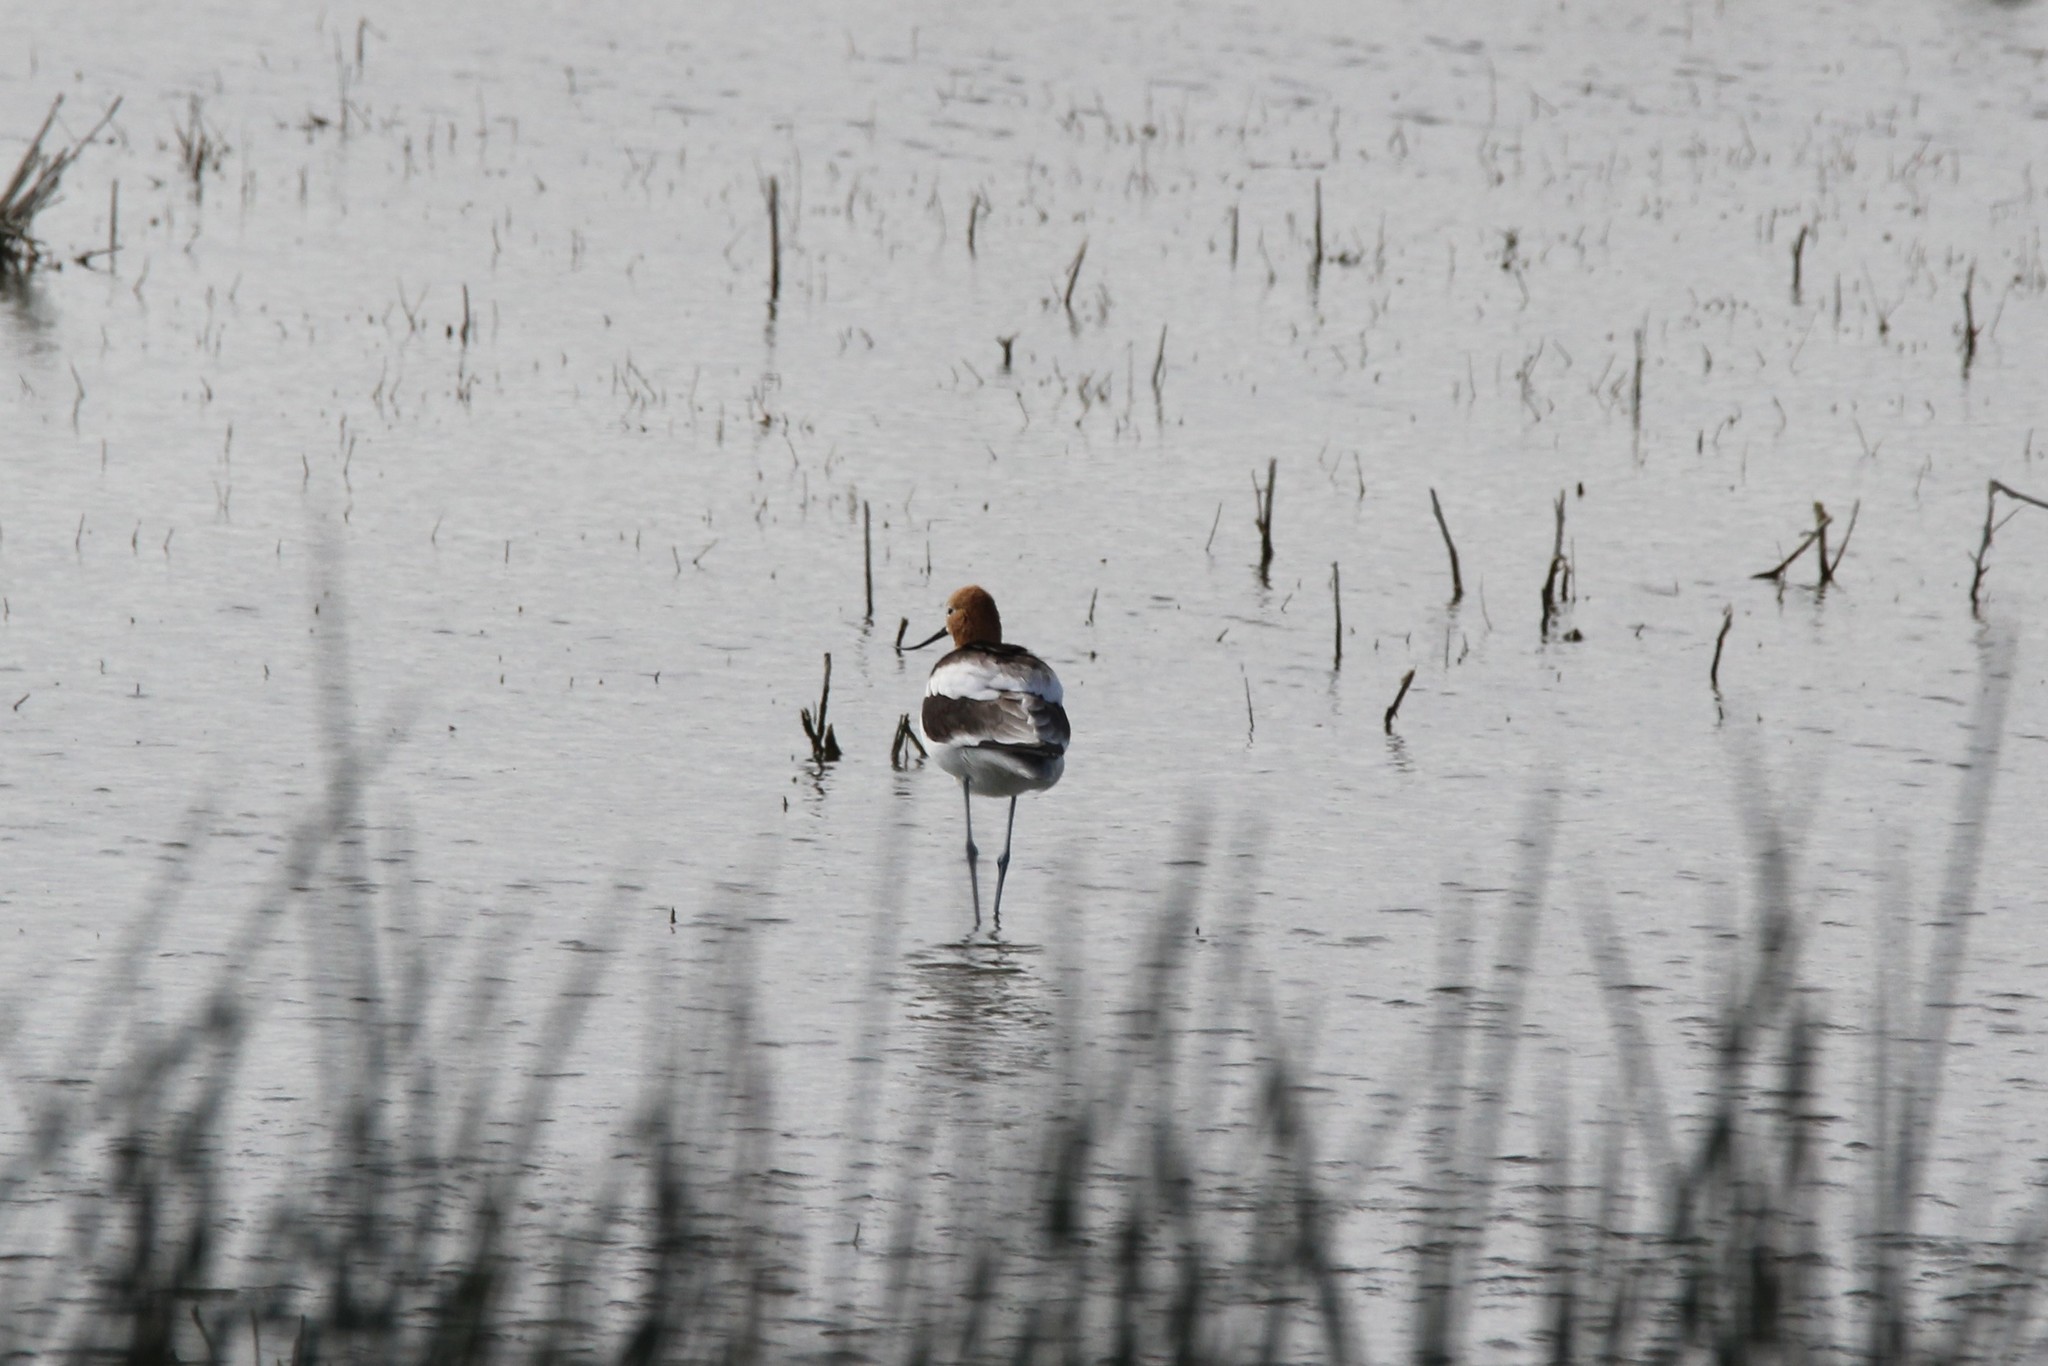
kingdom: Animalia
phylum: Chordata
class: Aves
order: Charadriiformes
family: Recurvirostridae
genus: Recurvirostra
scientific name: Recurvirostra americana
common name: American avocet
